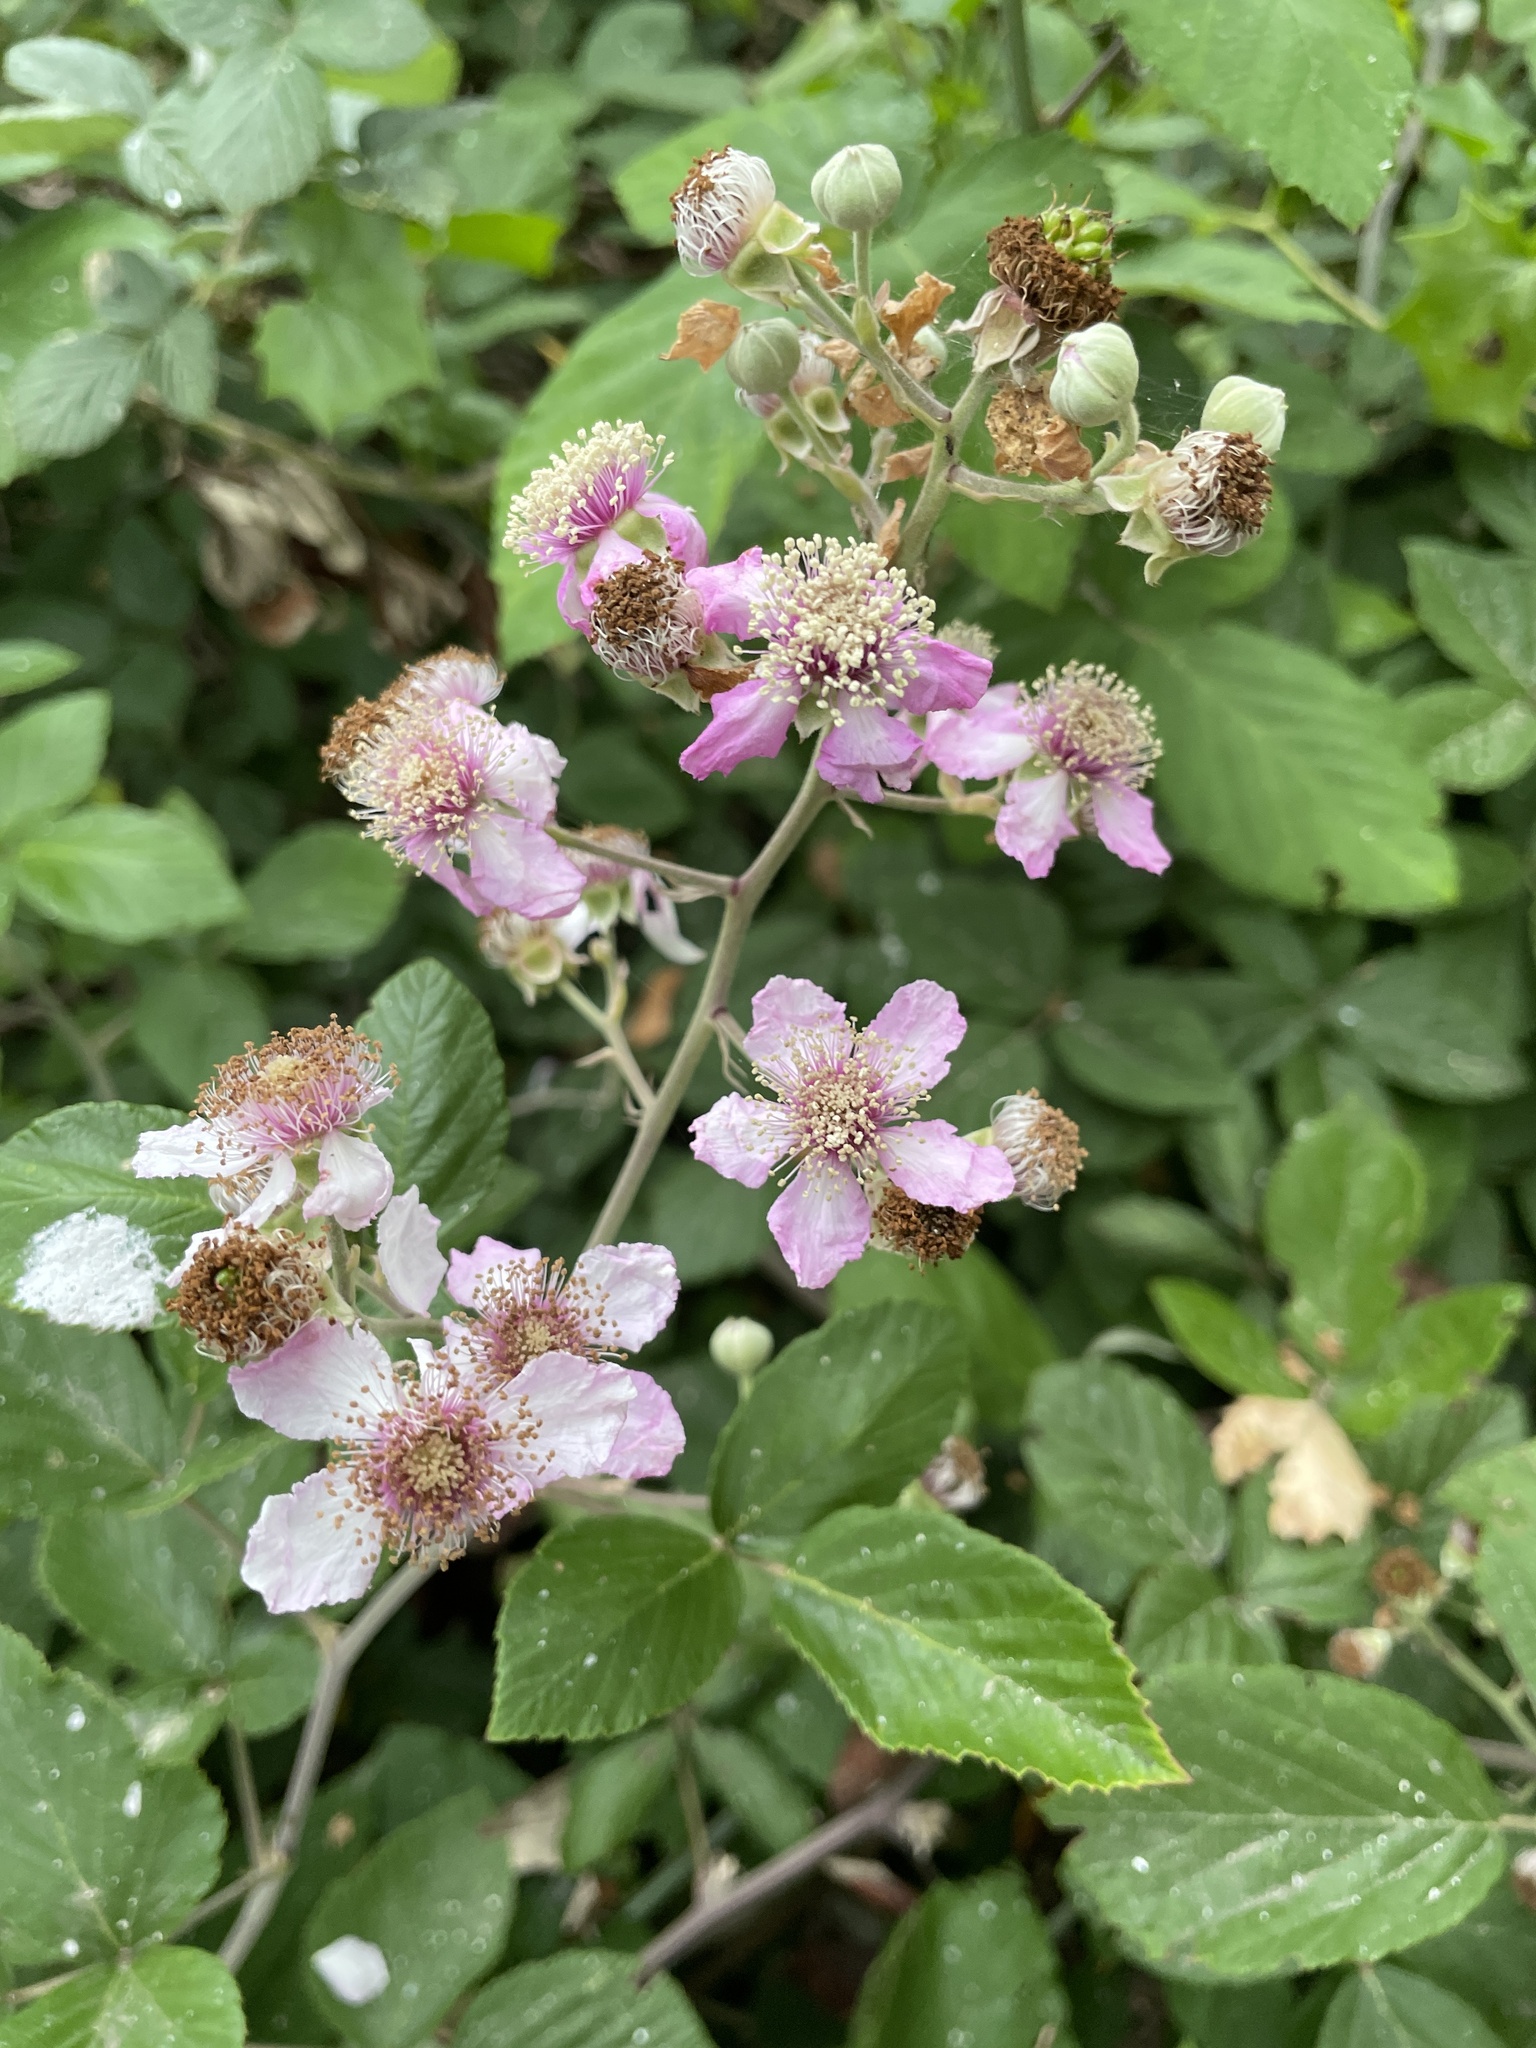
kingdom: Plantae
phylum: Tracheophyta
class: Magnoliopsida
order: Rosales
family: Rosaceae
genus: Rubus
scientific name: Rubus ulmifolius
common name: Elmleaf blackberry
